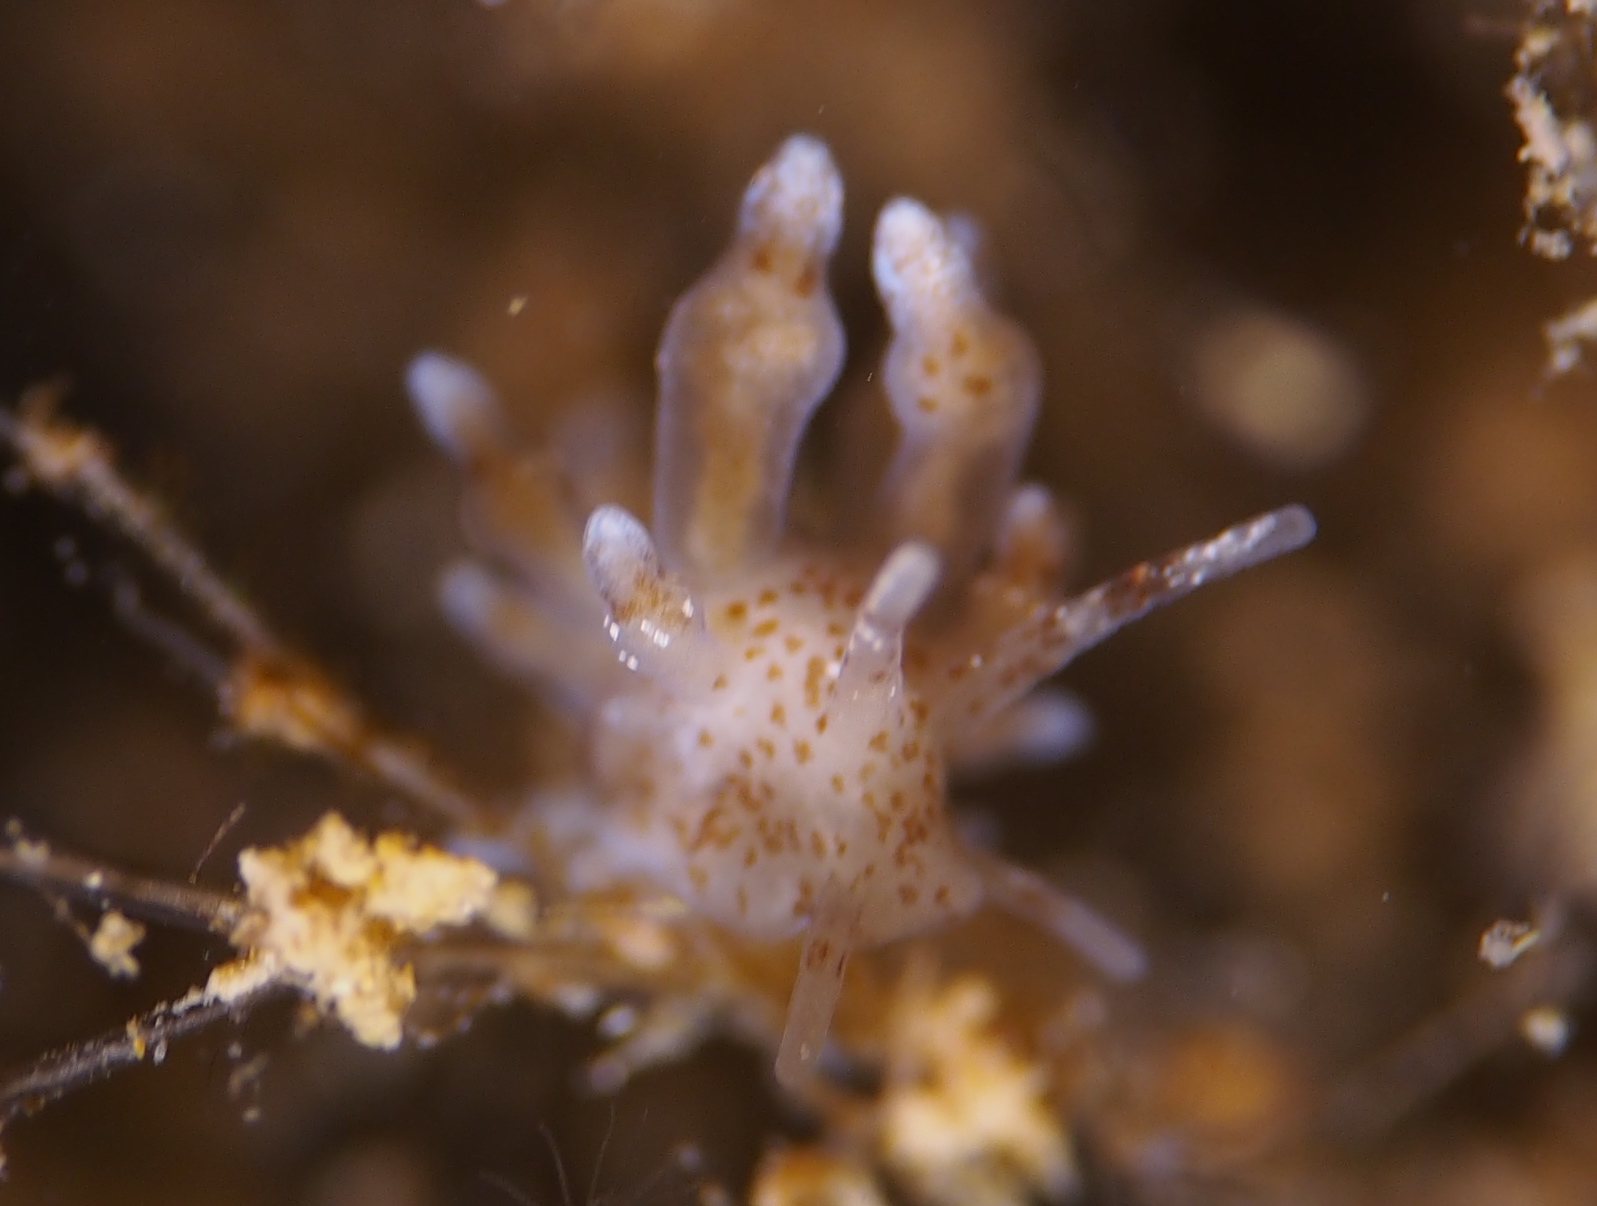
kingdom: Animalia
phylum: Mollusca
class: Gastropoda
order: Nudibranchia
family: Eubranchidae
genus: Eubranchus
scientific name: Eubranchus exiguus
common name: Balloon aeolis
